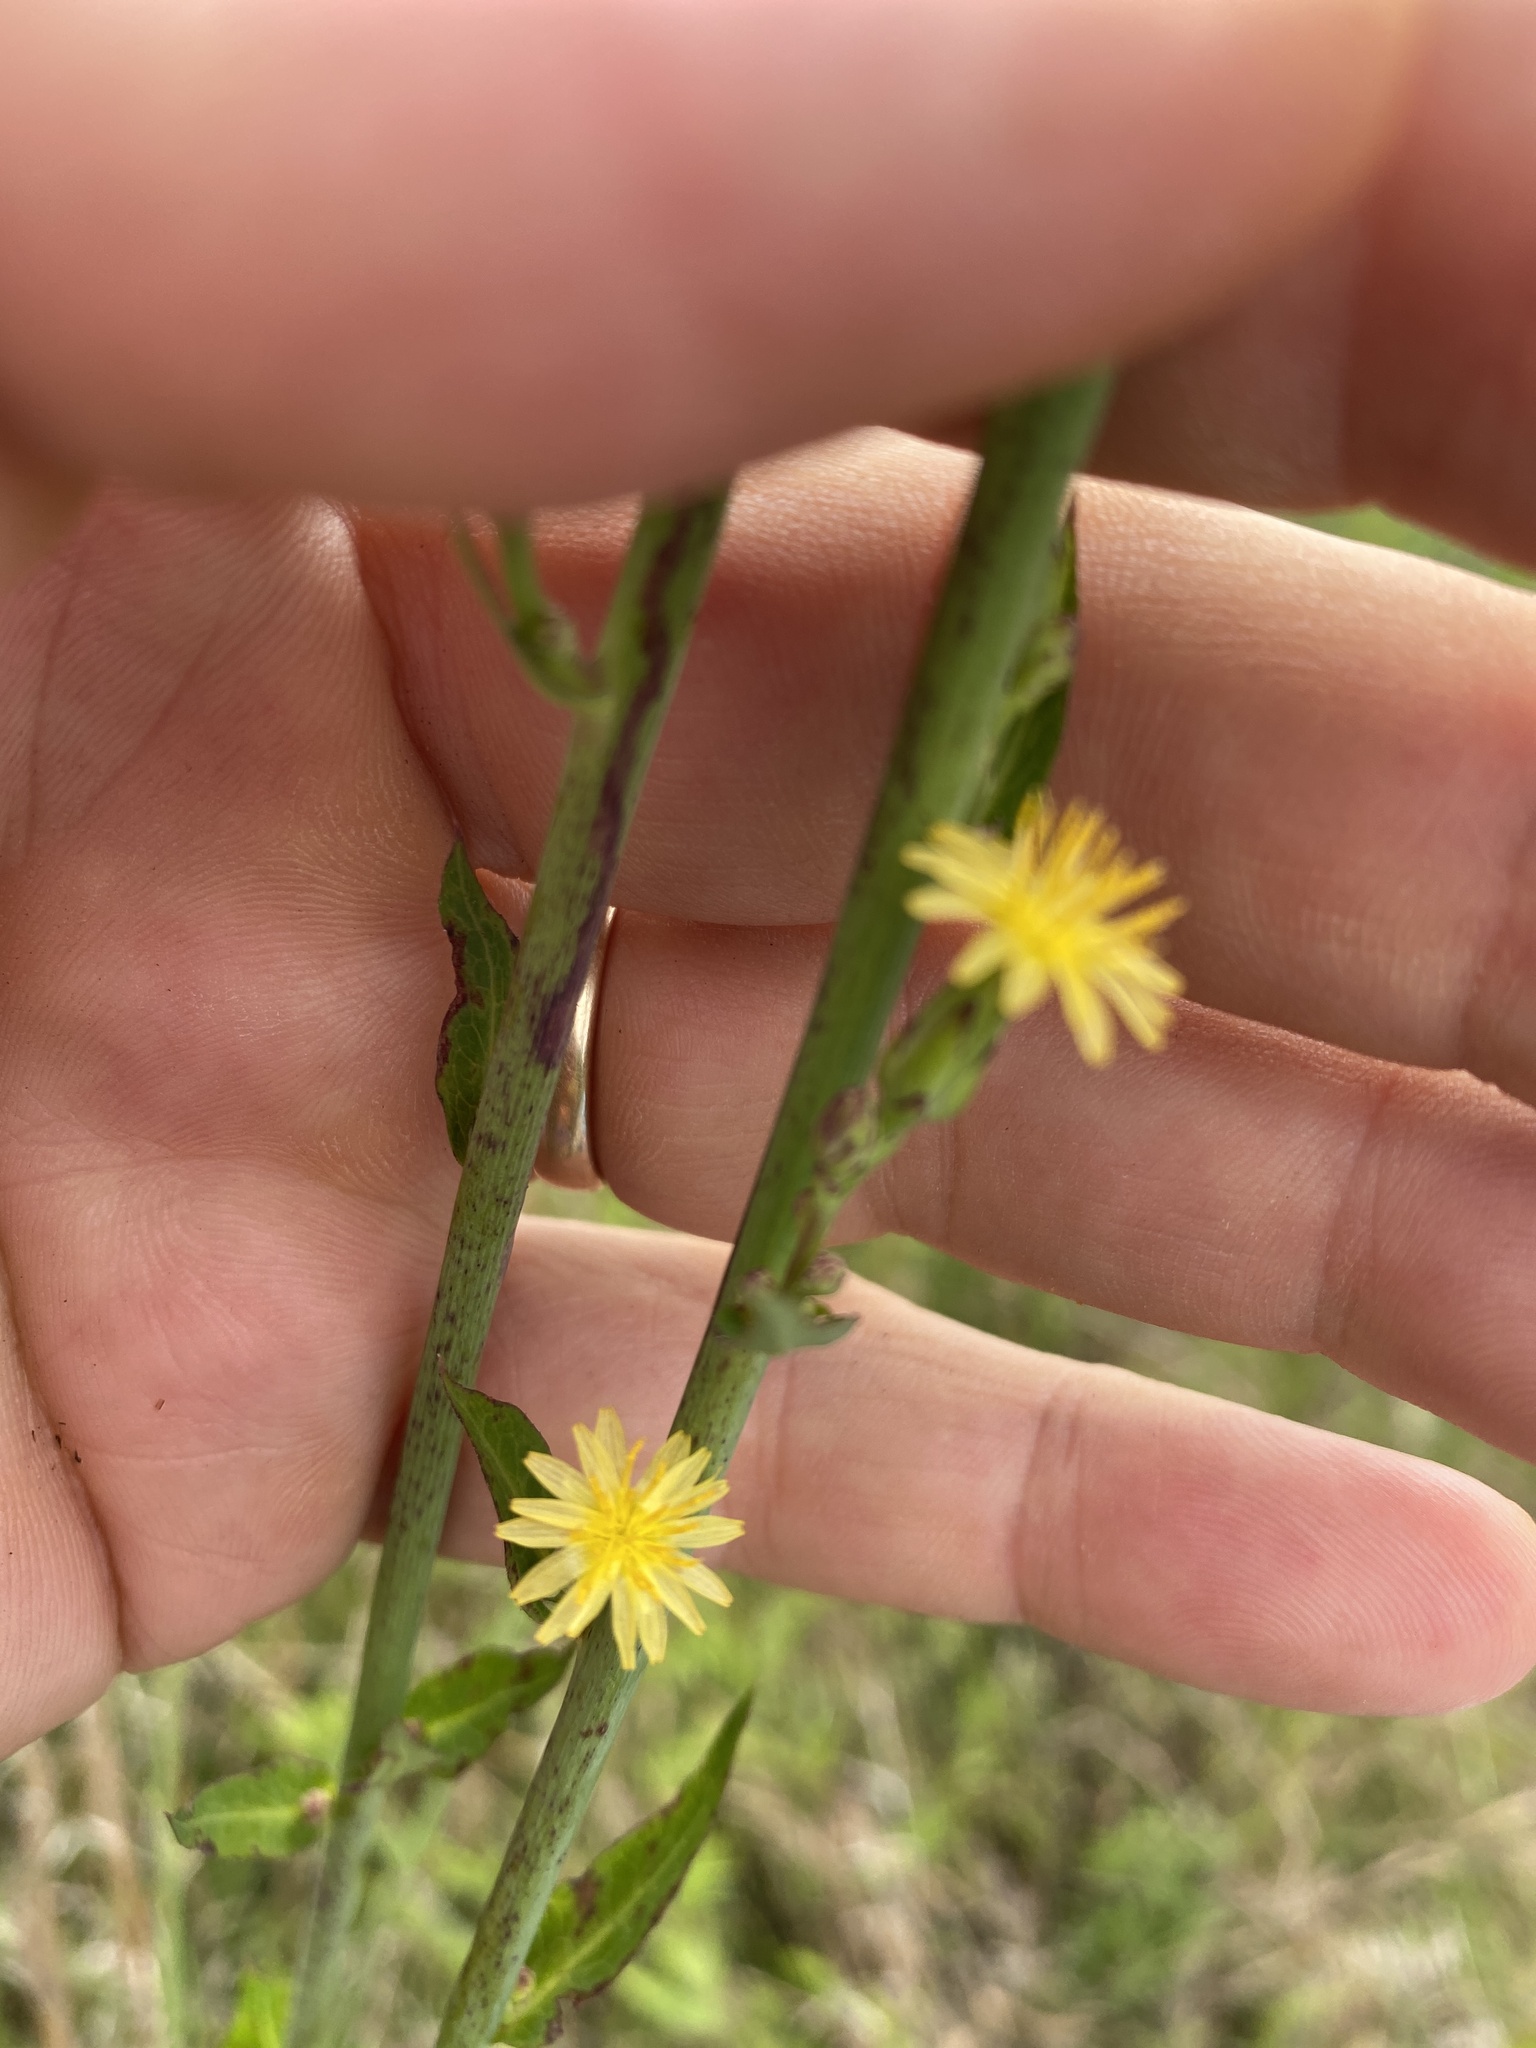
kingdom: Plantae
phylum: Tracheophyta
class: Magnoliopsida
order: Asterales
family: Asteraceae
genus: Lactuca
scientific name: Lactuca canadensis
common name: Canada lettuce
